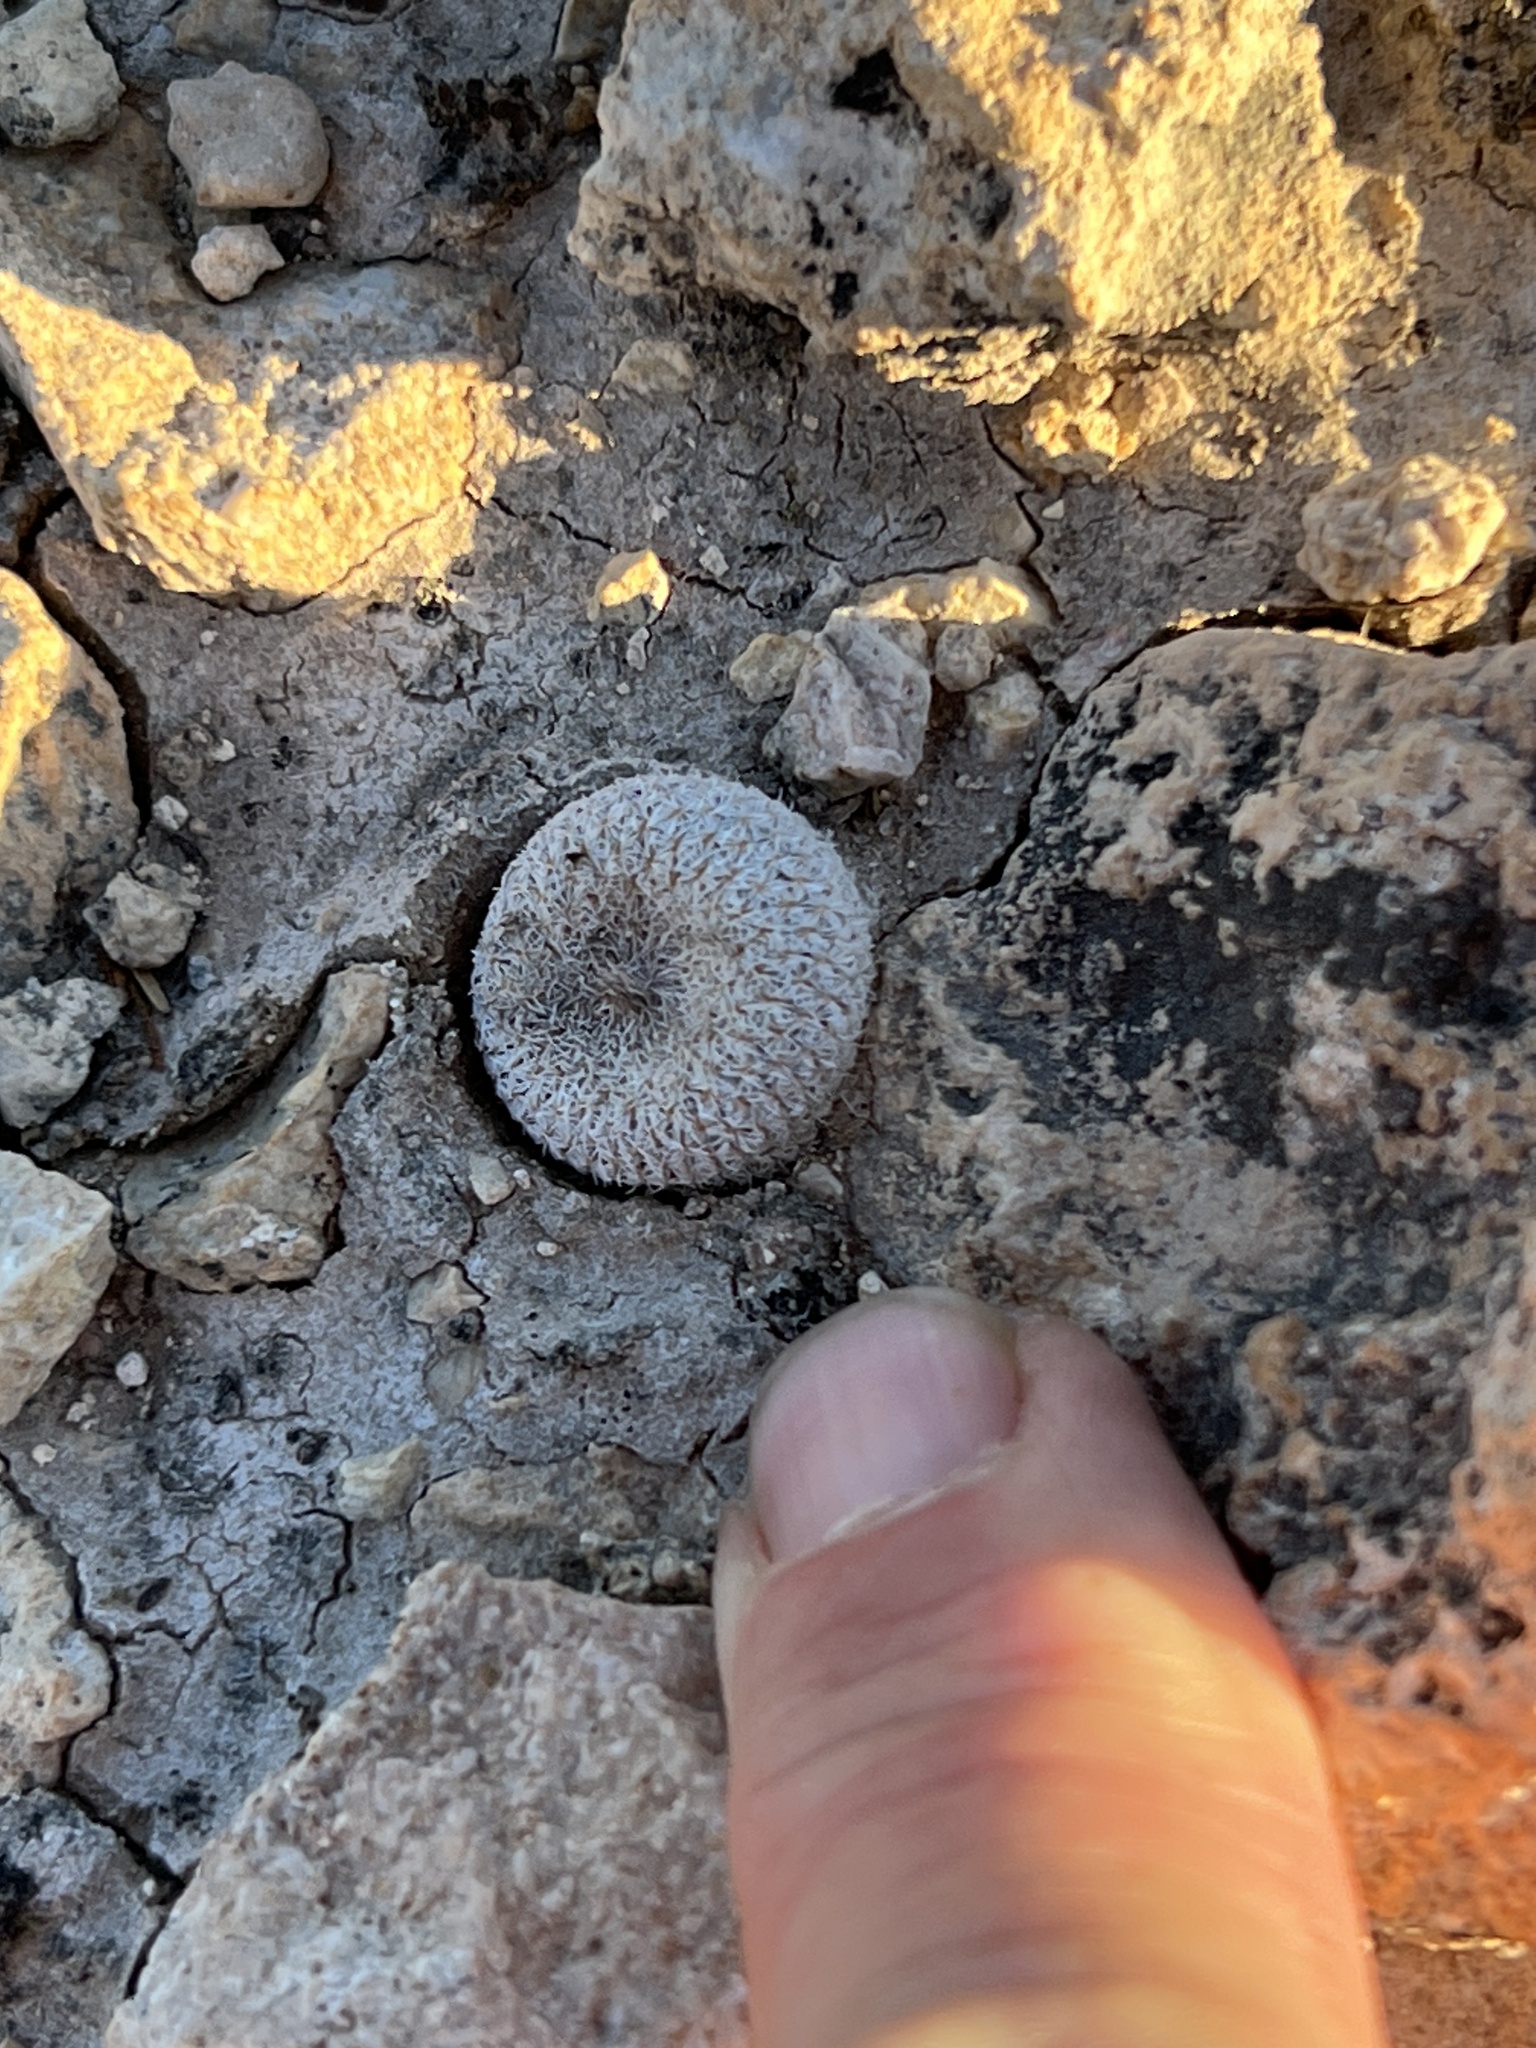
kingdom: Plantae
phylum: Tracheophyta
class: Magnoliopsida
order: Caryophyllales
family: Cactaceae
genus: Epithelantha
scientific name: Epithelantha micromeris
